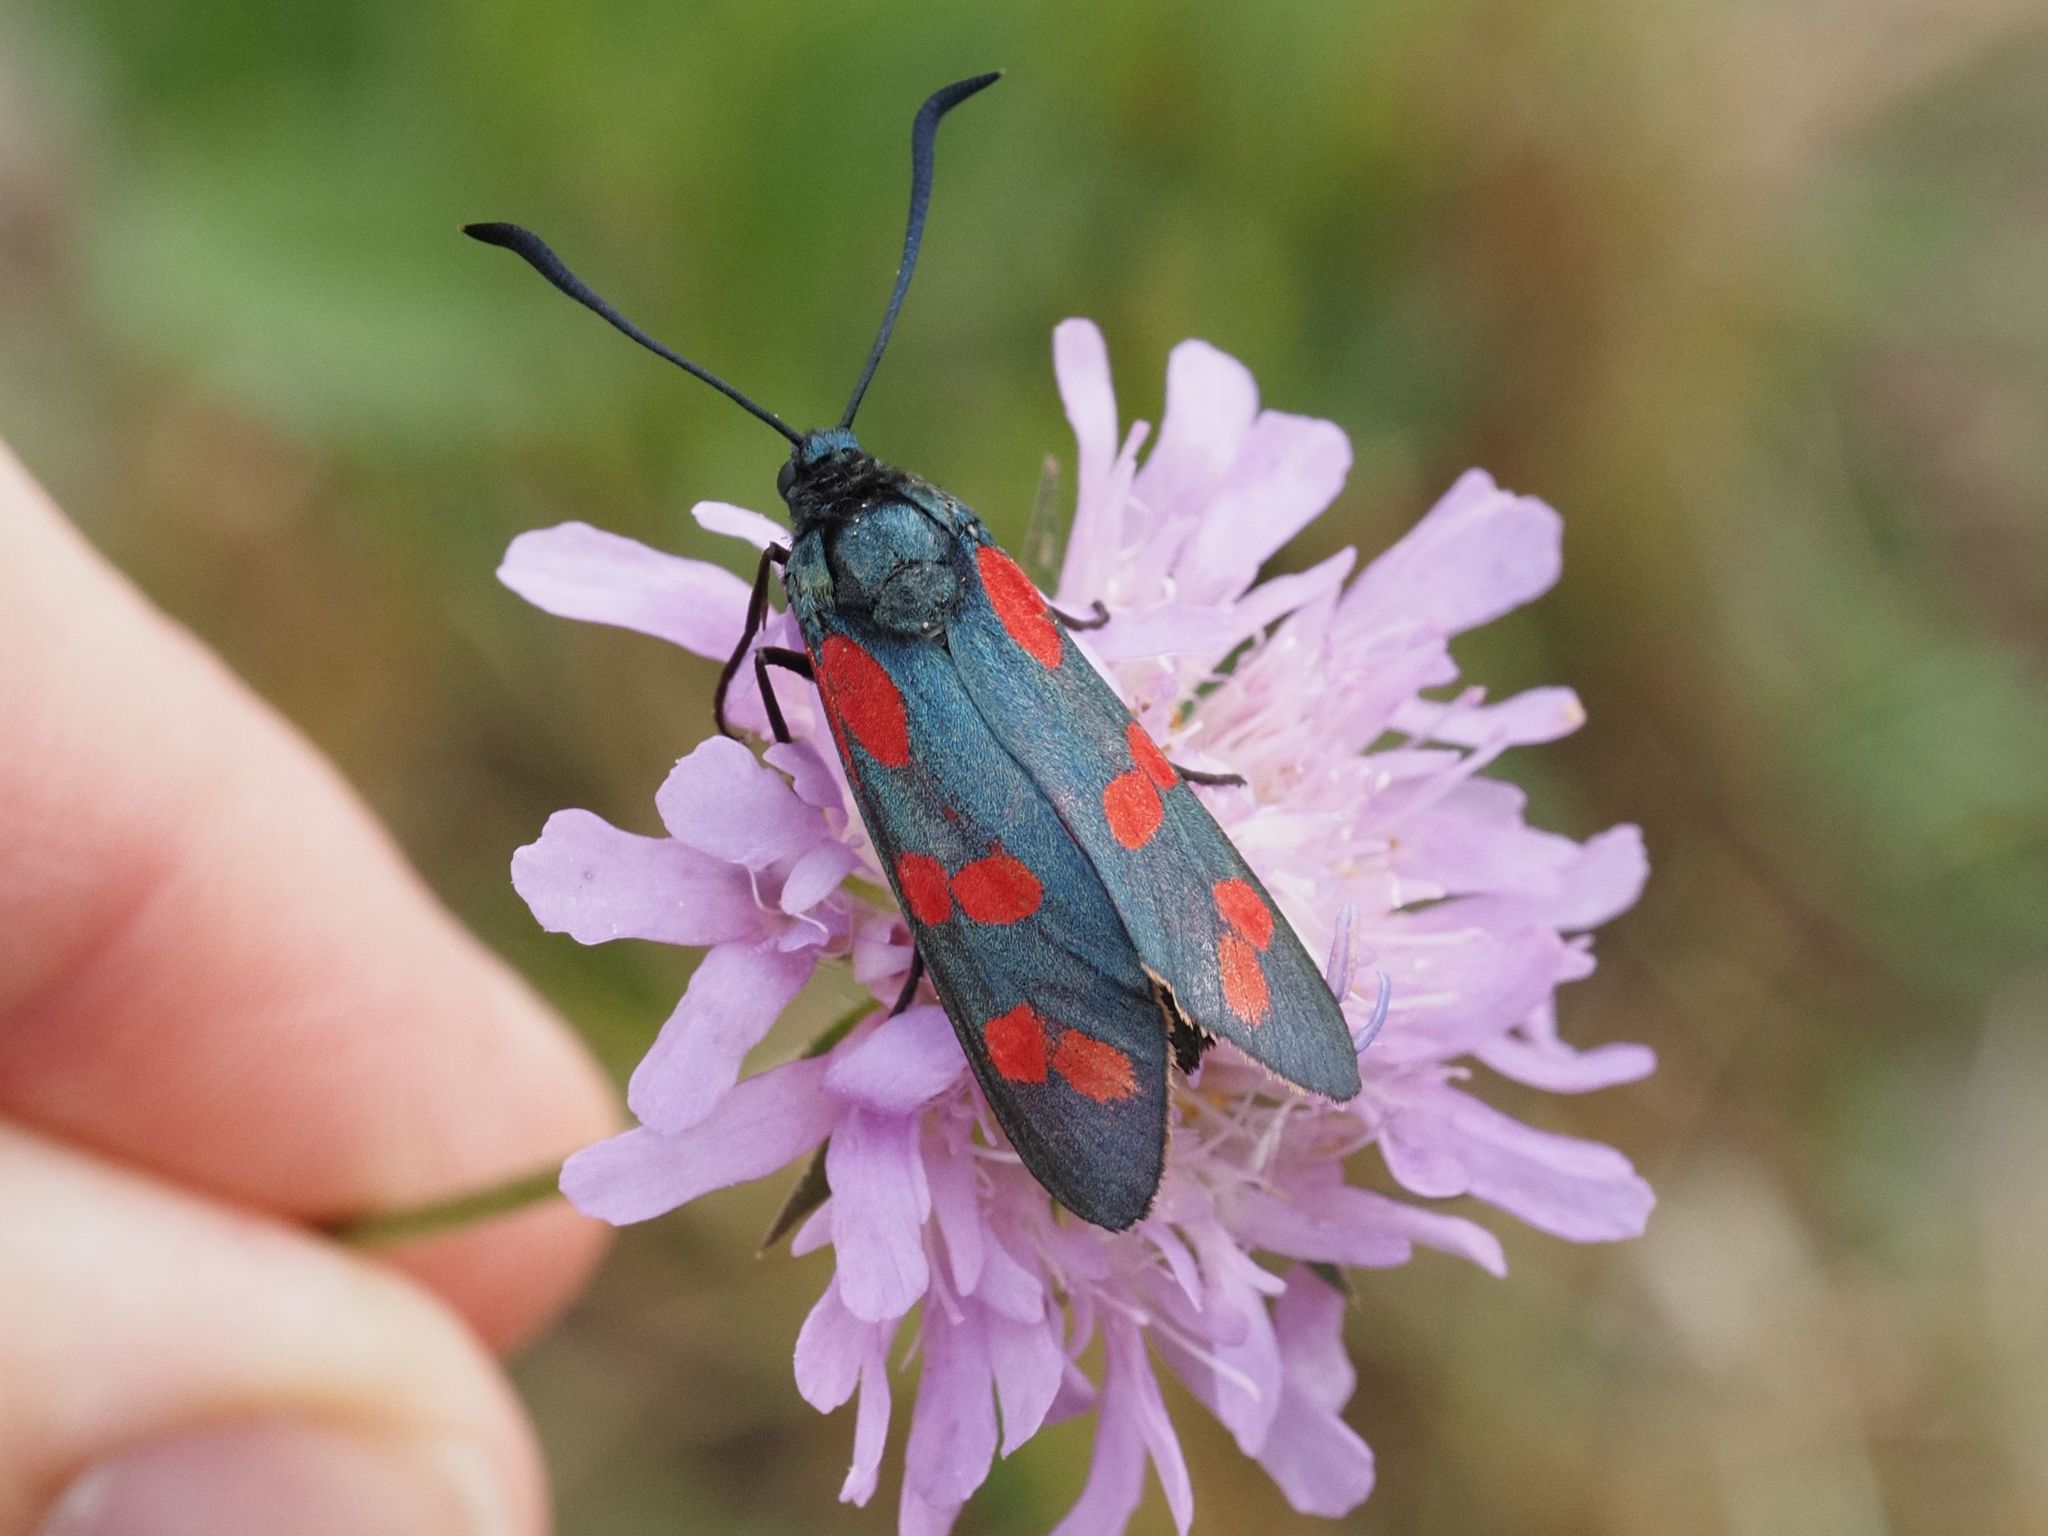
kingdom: Animalia
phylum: Arthropoda
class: Insecta
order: Lepidoptera
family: Zygaenidae
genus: Zygaena
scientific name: Zygaena filipendulae
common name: Six-spot burnet
